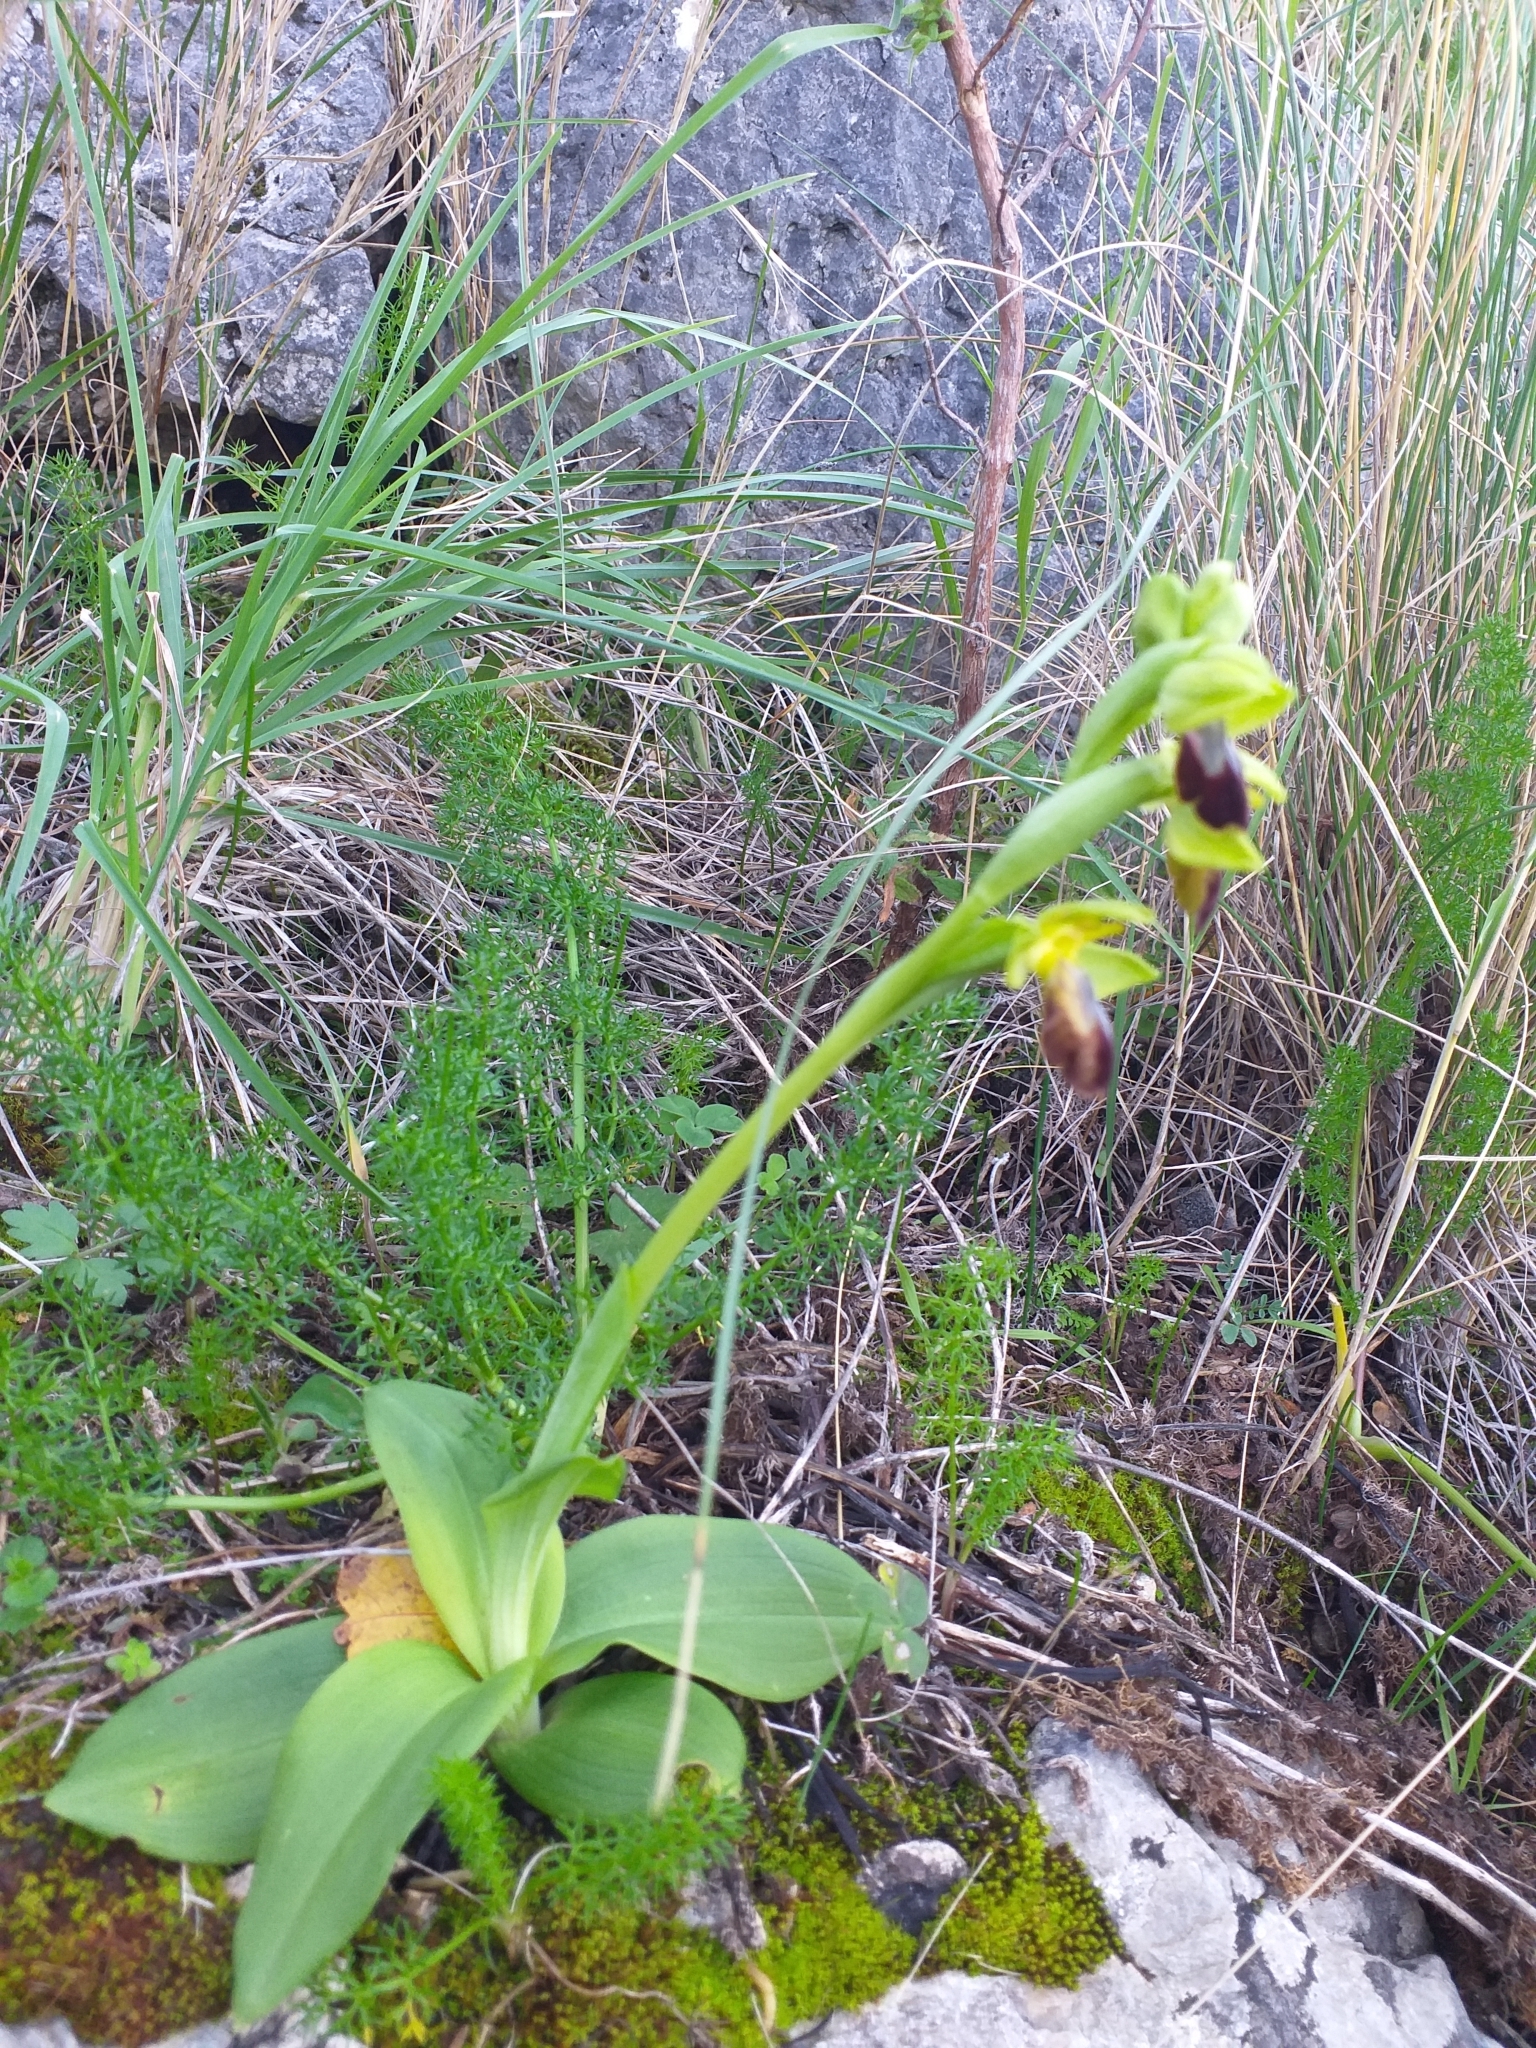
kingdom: Plantae
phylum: Tracheophyta
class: Liliopsida
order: Asparagales
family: Orchidaceae
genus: Ophrys
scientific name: Ophrys fusca
